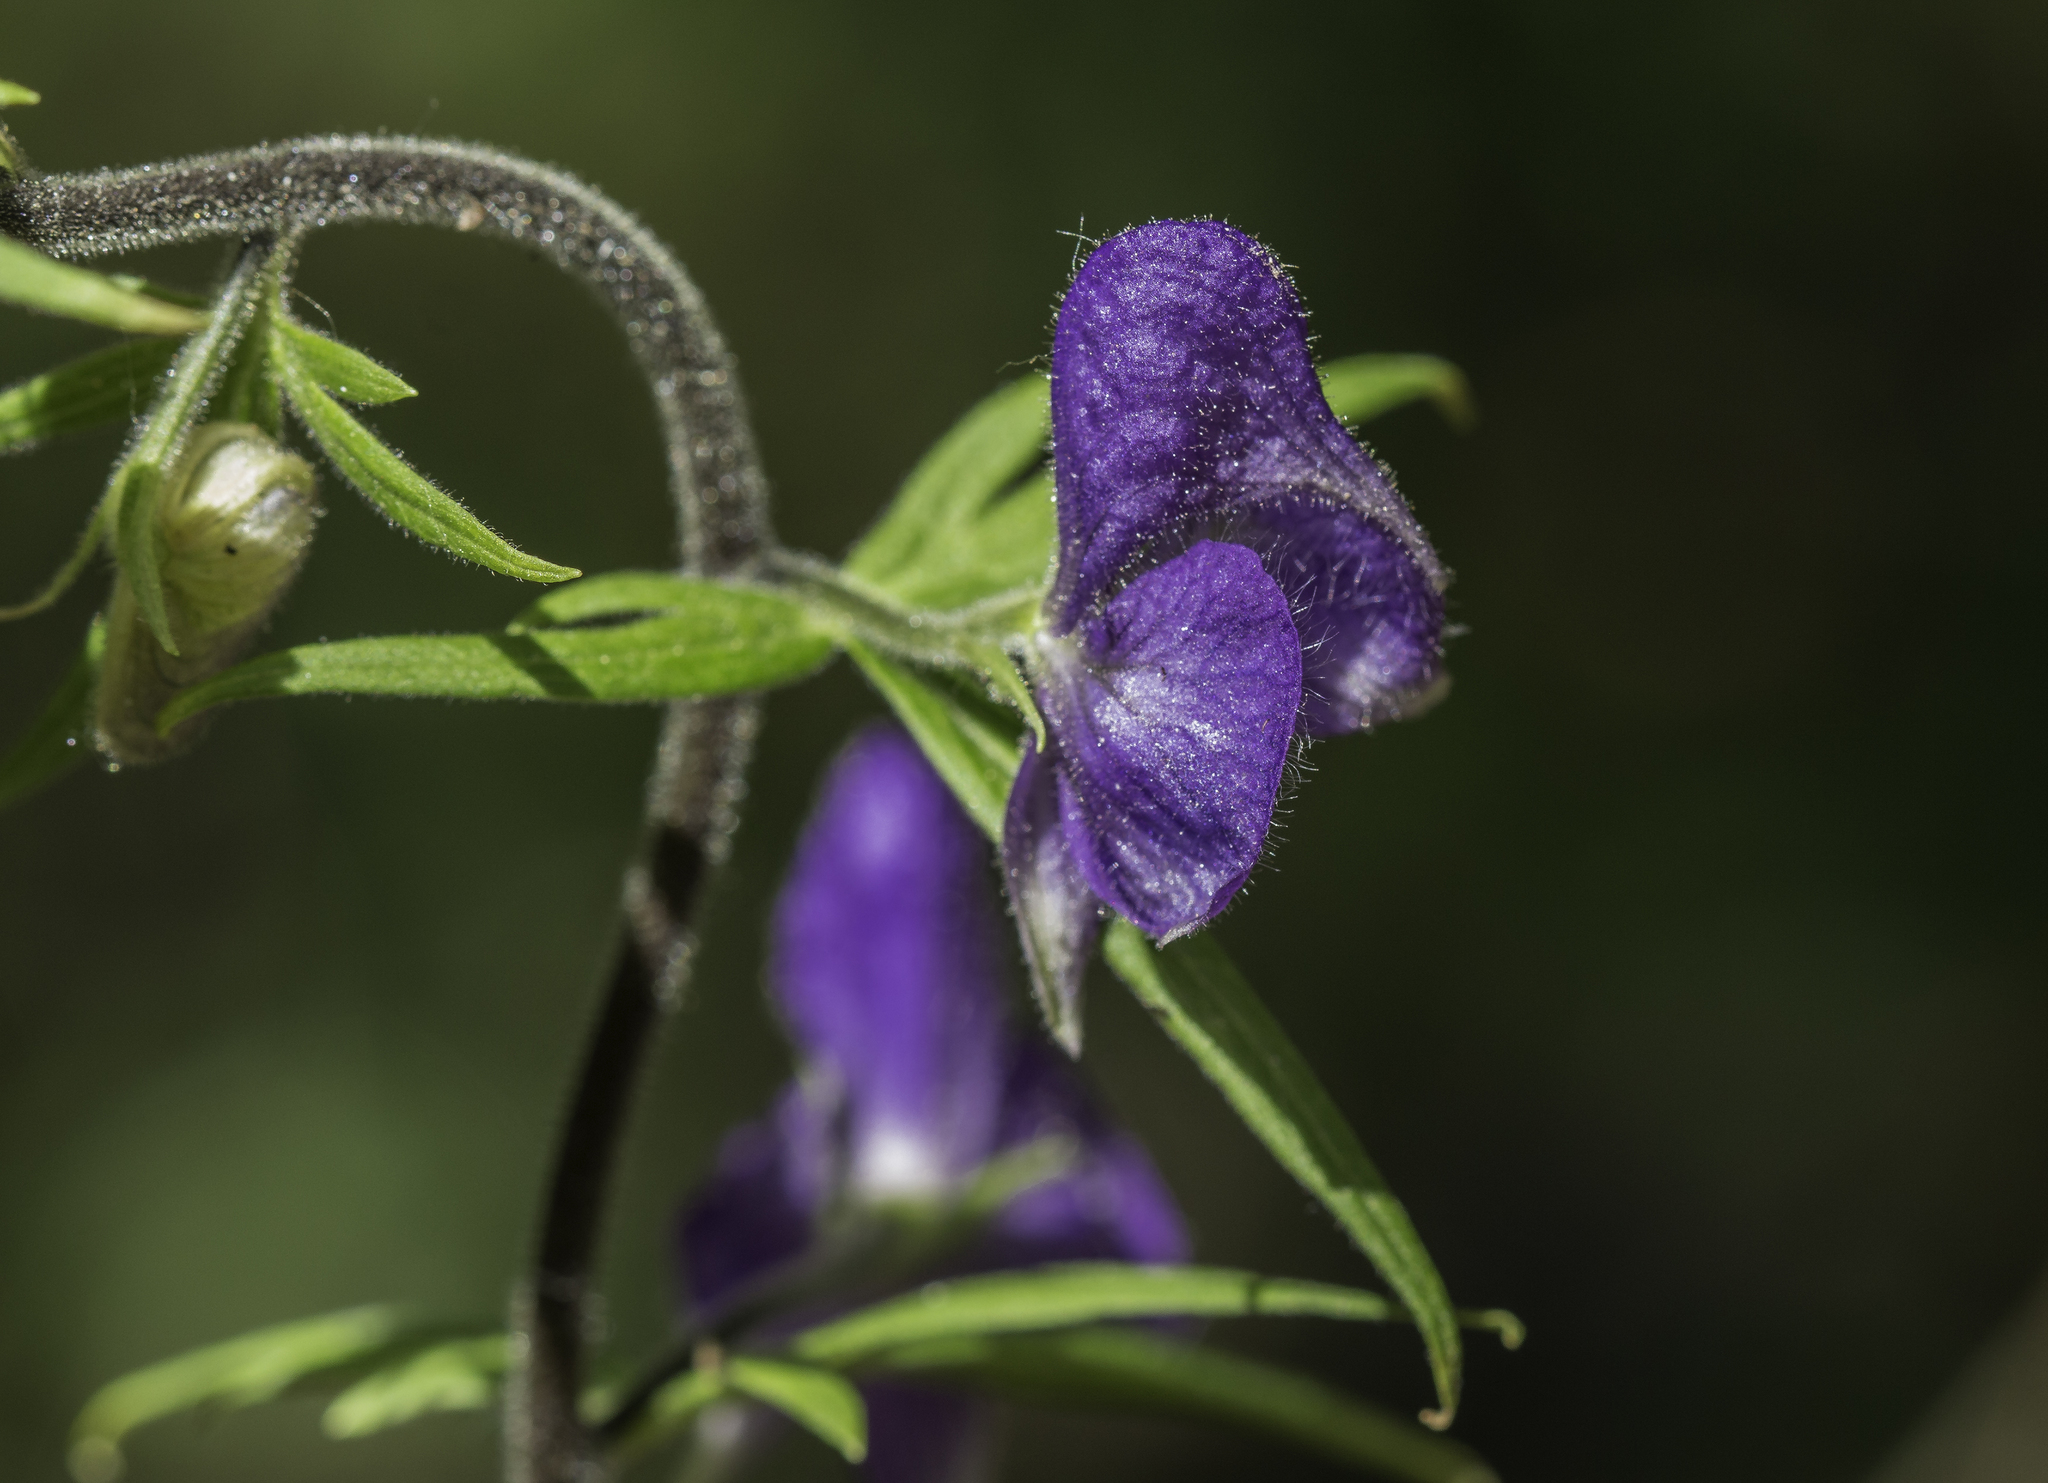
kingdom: Plantae
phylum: Tracheophyta
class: Magnoliopsida
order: Ranunculales
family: Ranunculaceae
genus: Aconitum
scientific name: Aconitum columbianum
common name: Columbia aconite
